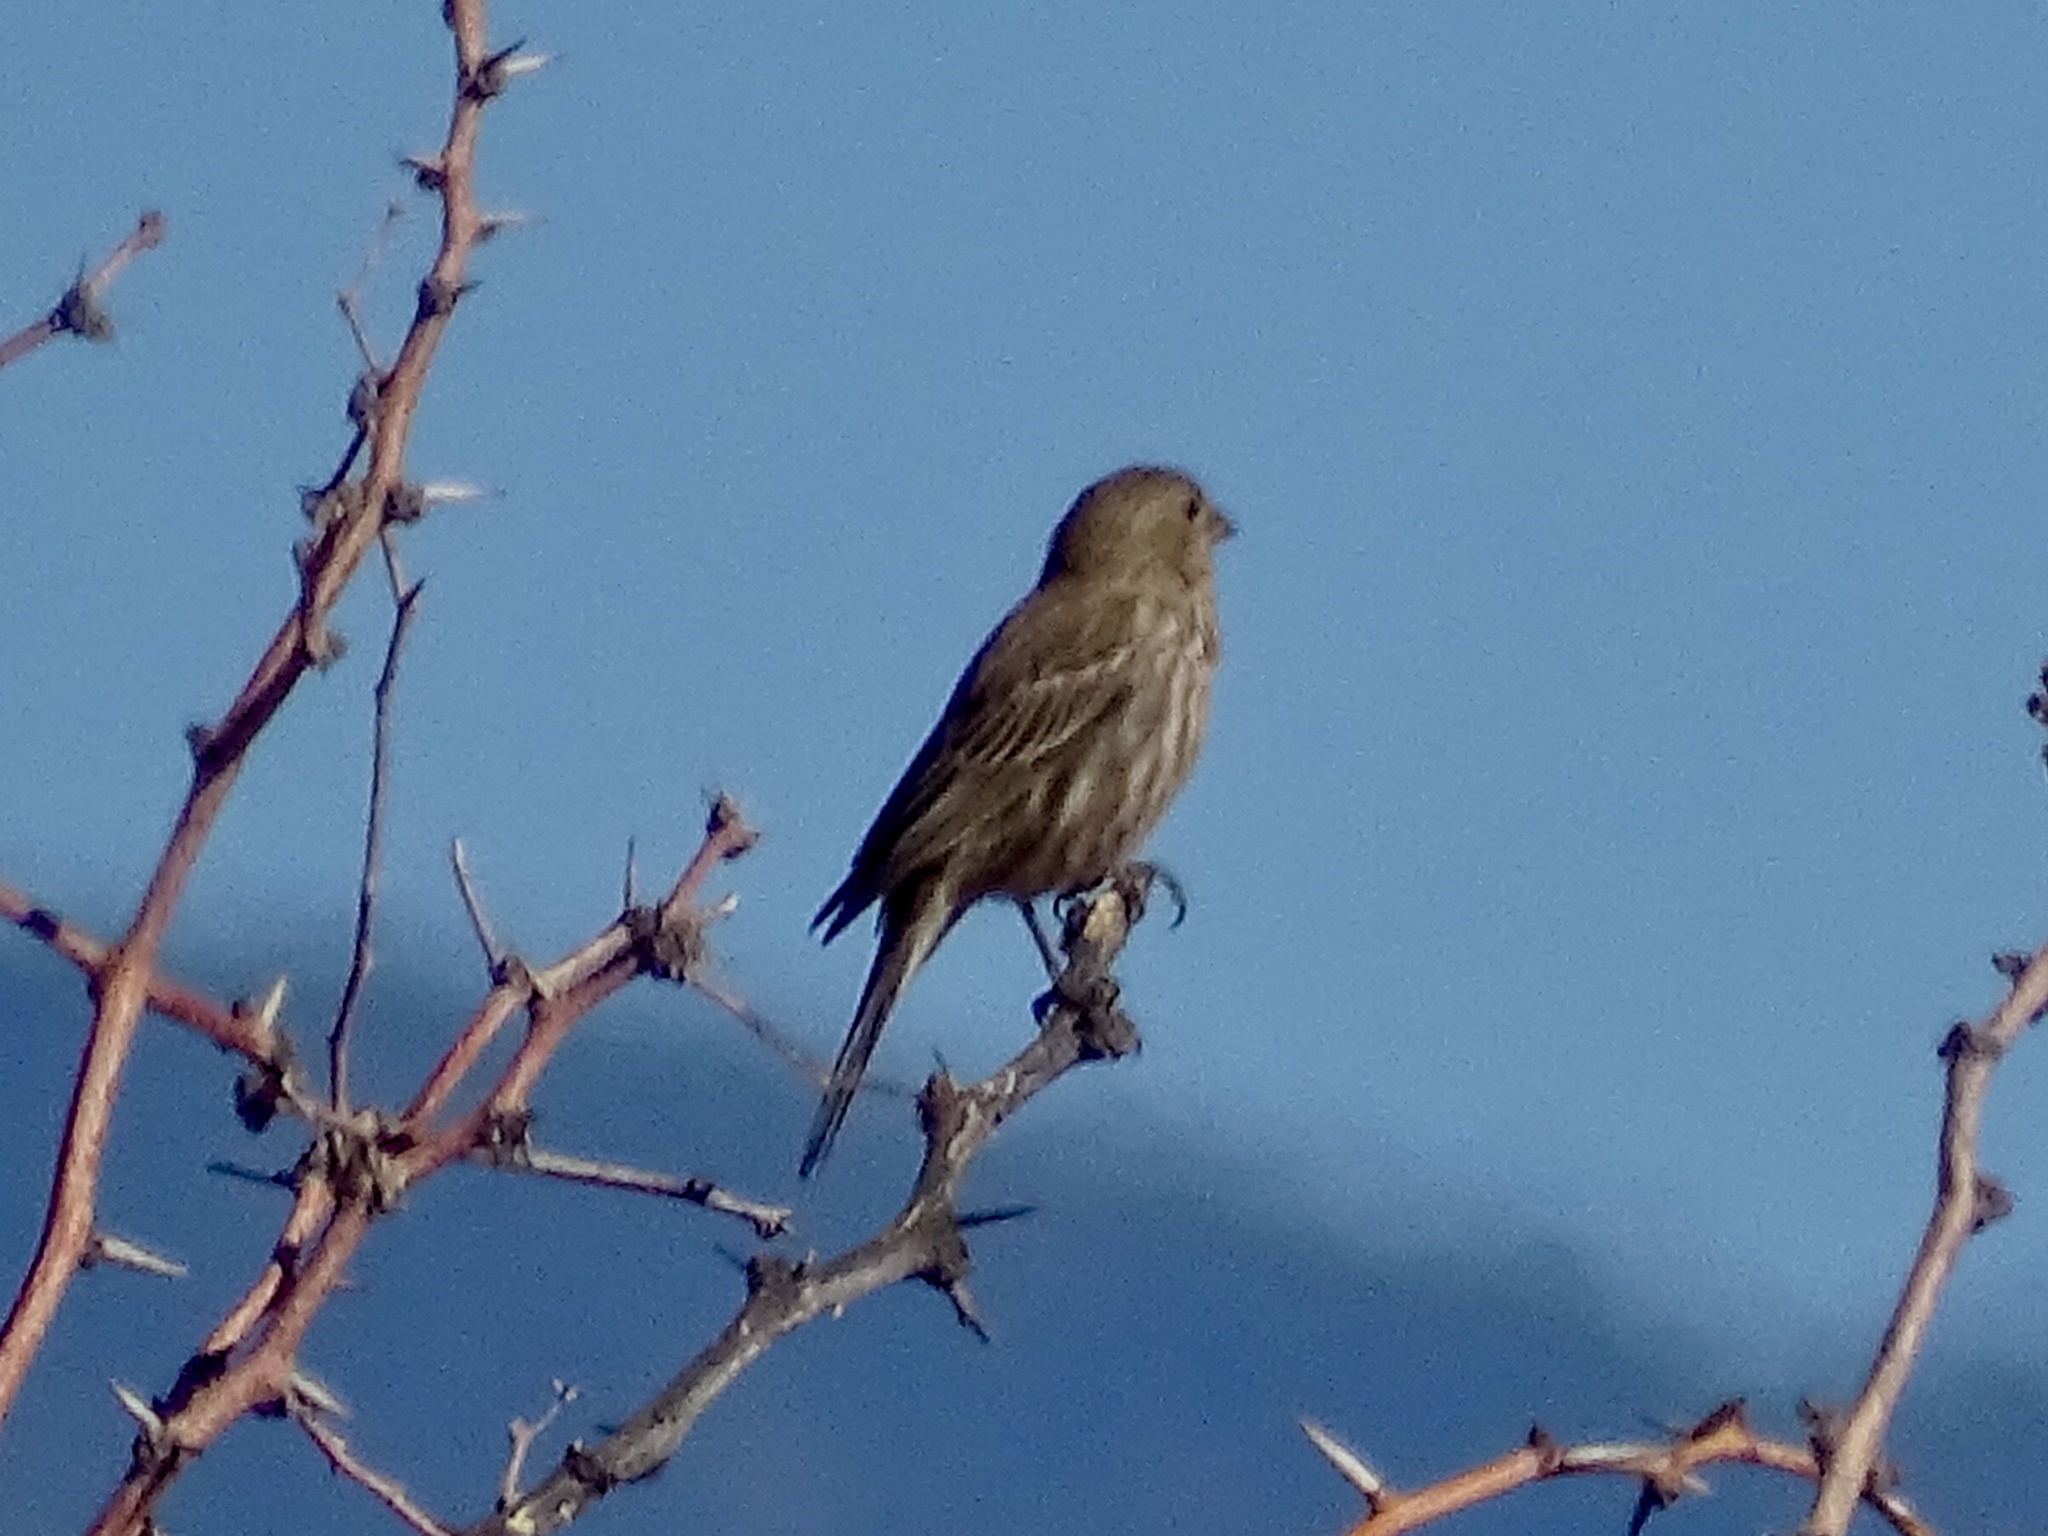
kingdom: Animalia
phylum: Chordata
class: Aves
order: Passeriformes
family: Fringillidae
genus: Haemorhous
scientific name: Haemorhous mexicanus
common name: House finch
